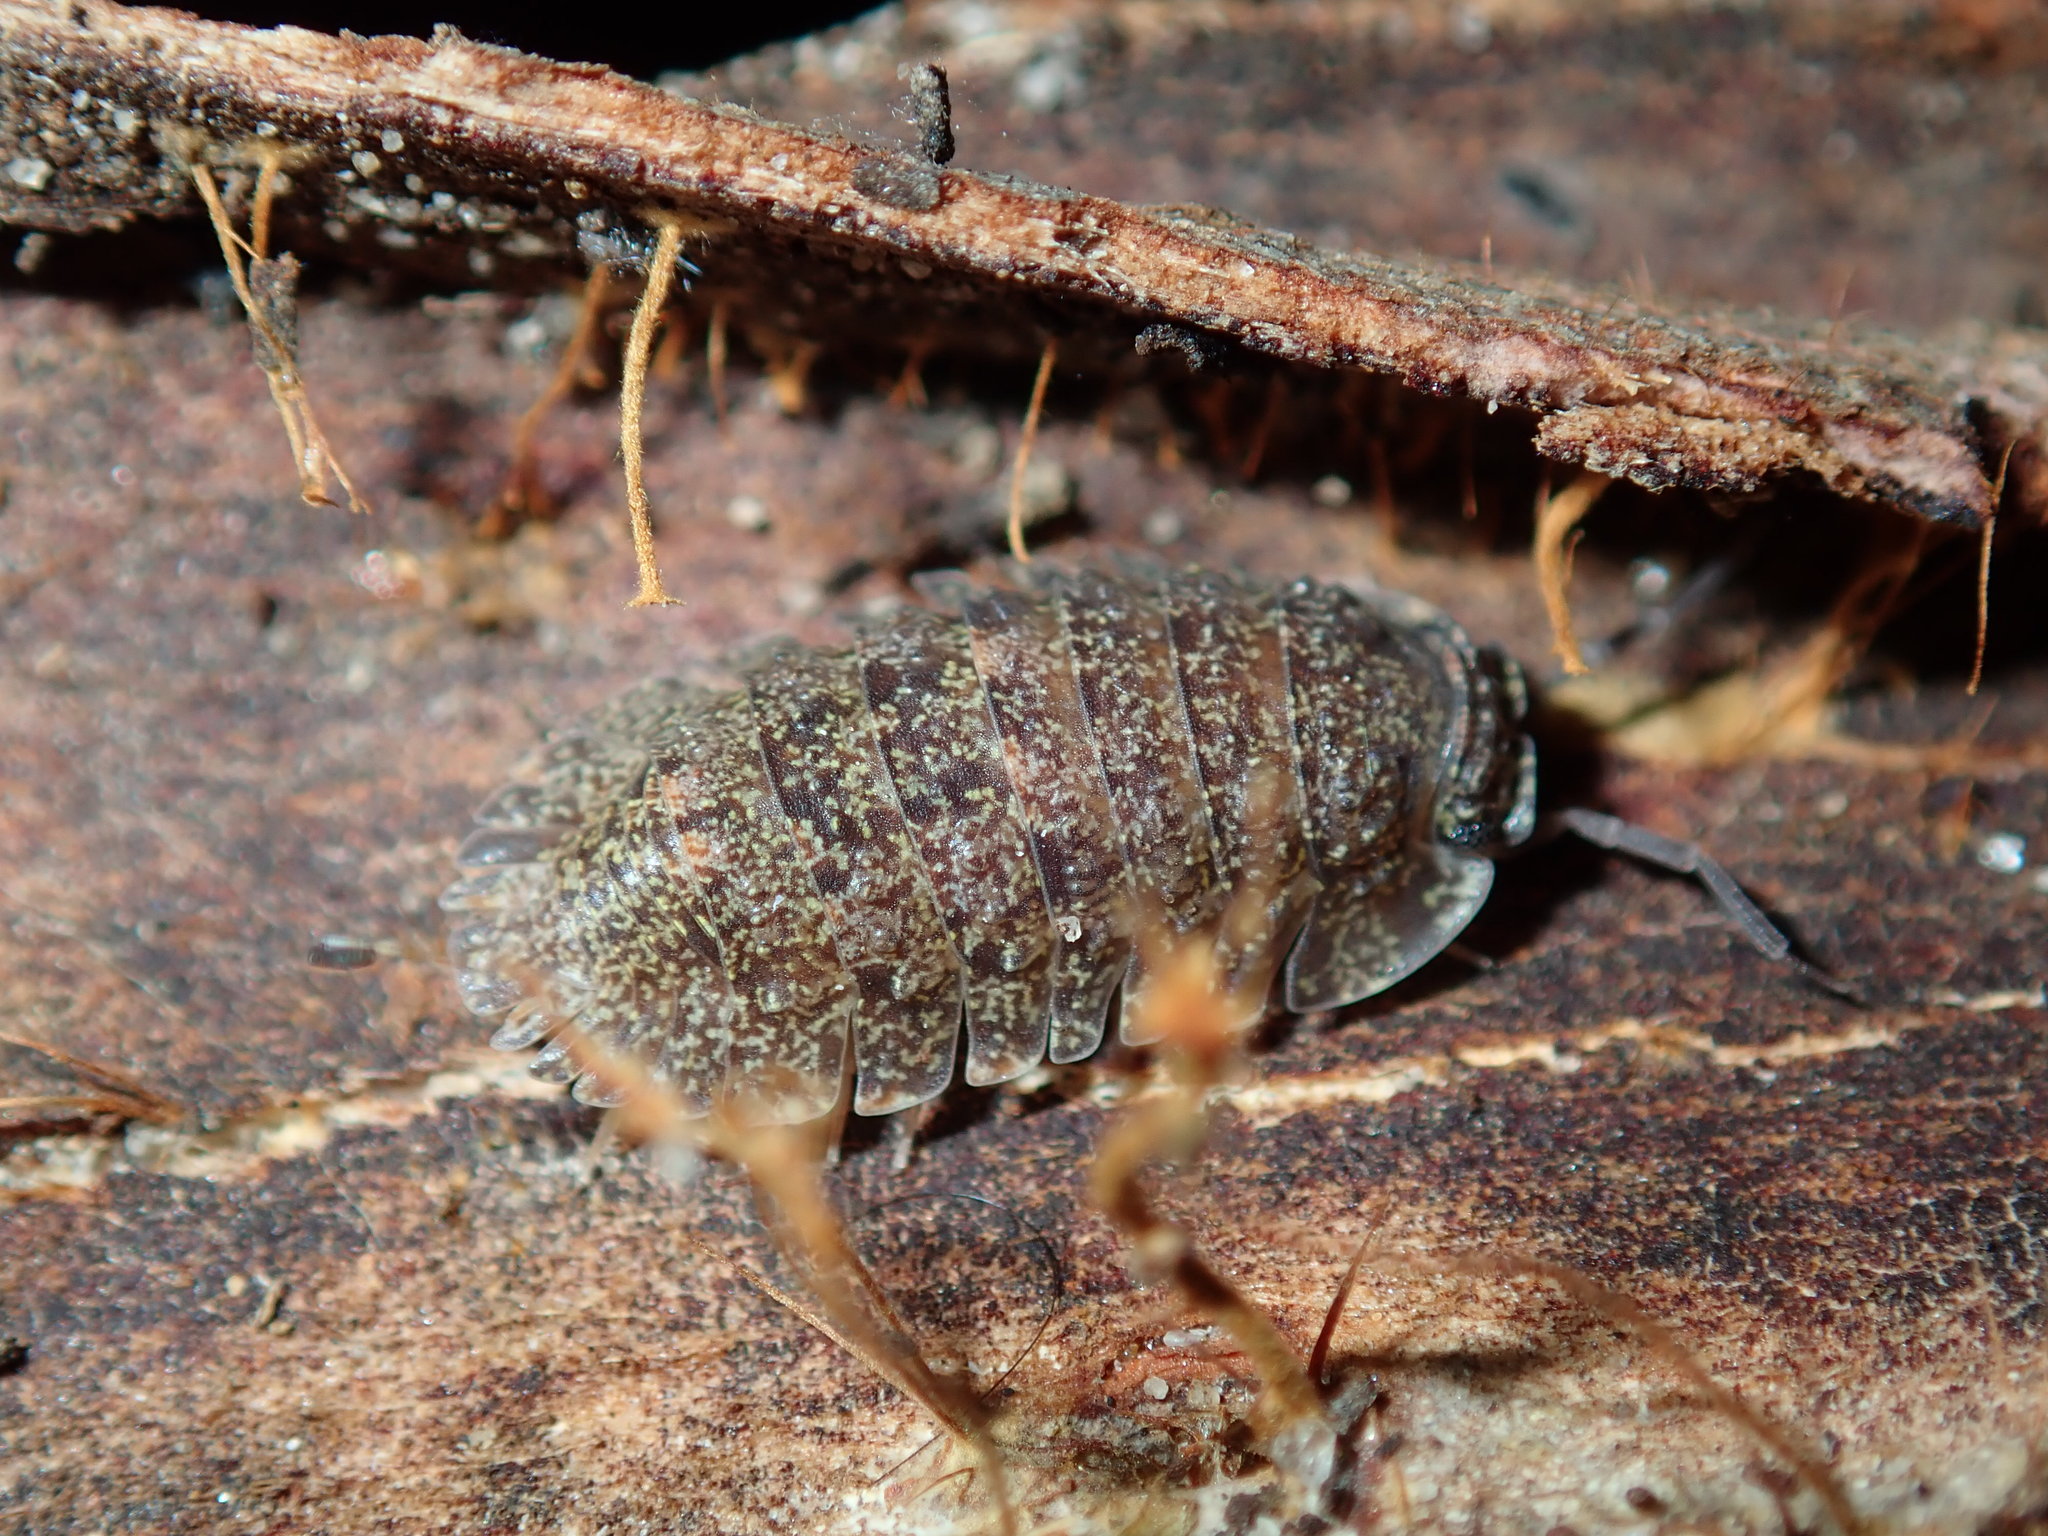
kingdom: Animalia
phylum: Arthropoda
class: Malacostraca
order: Isopoda
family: Armadillidae
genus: Merulana
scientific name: Merulana helmsiana
